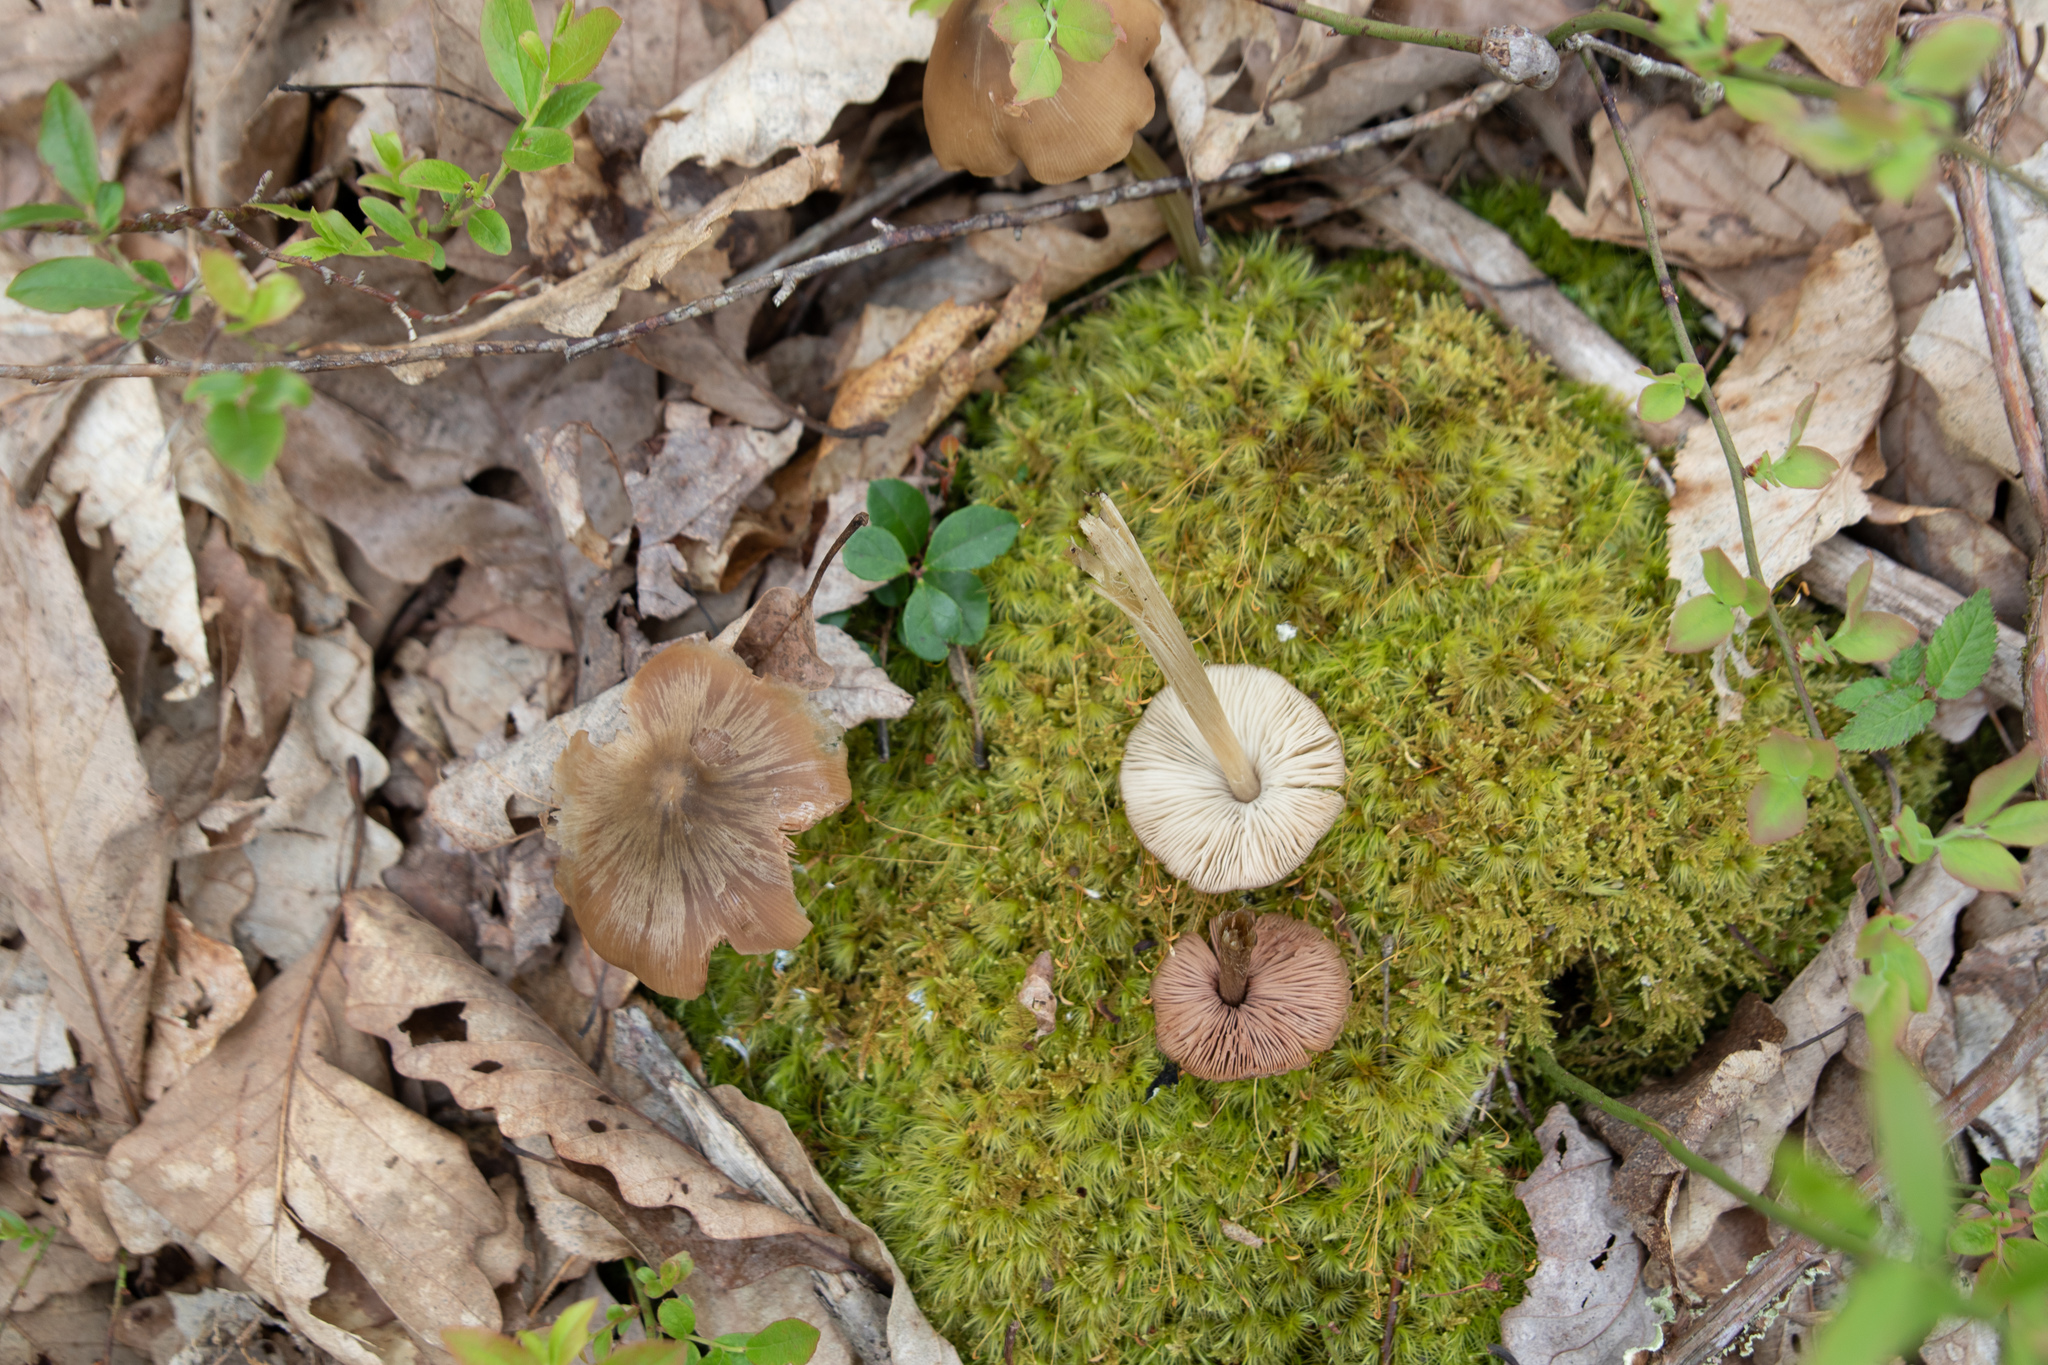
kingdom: Fungi
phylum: Basidiomycota
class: Agaricomycetes
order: Agaricales
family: Entolomataceae
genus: Entoloma
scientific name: Entoloma vernum
